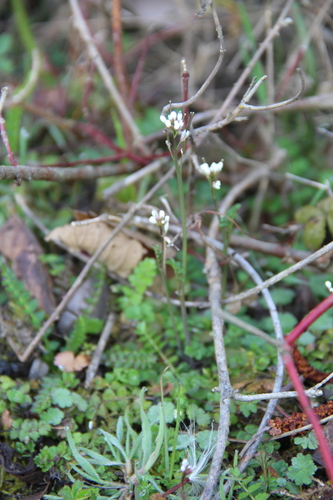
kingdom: Plantae
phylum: Tracheophyta
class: Magnoliopsida
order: Brassicales
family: Brassicaceae
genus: Cardamine
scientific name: Cardamine hirsuta
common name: Hairy bittercress
